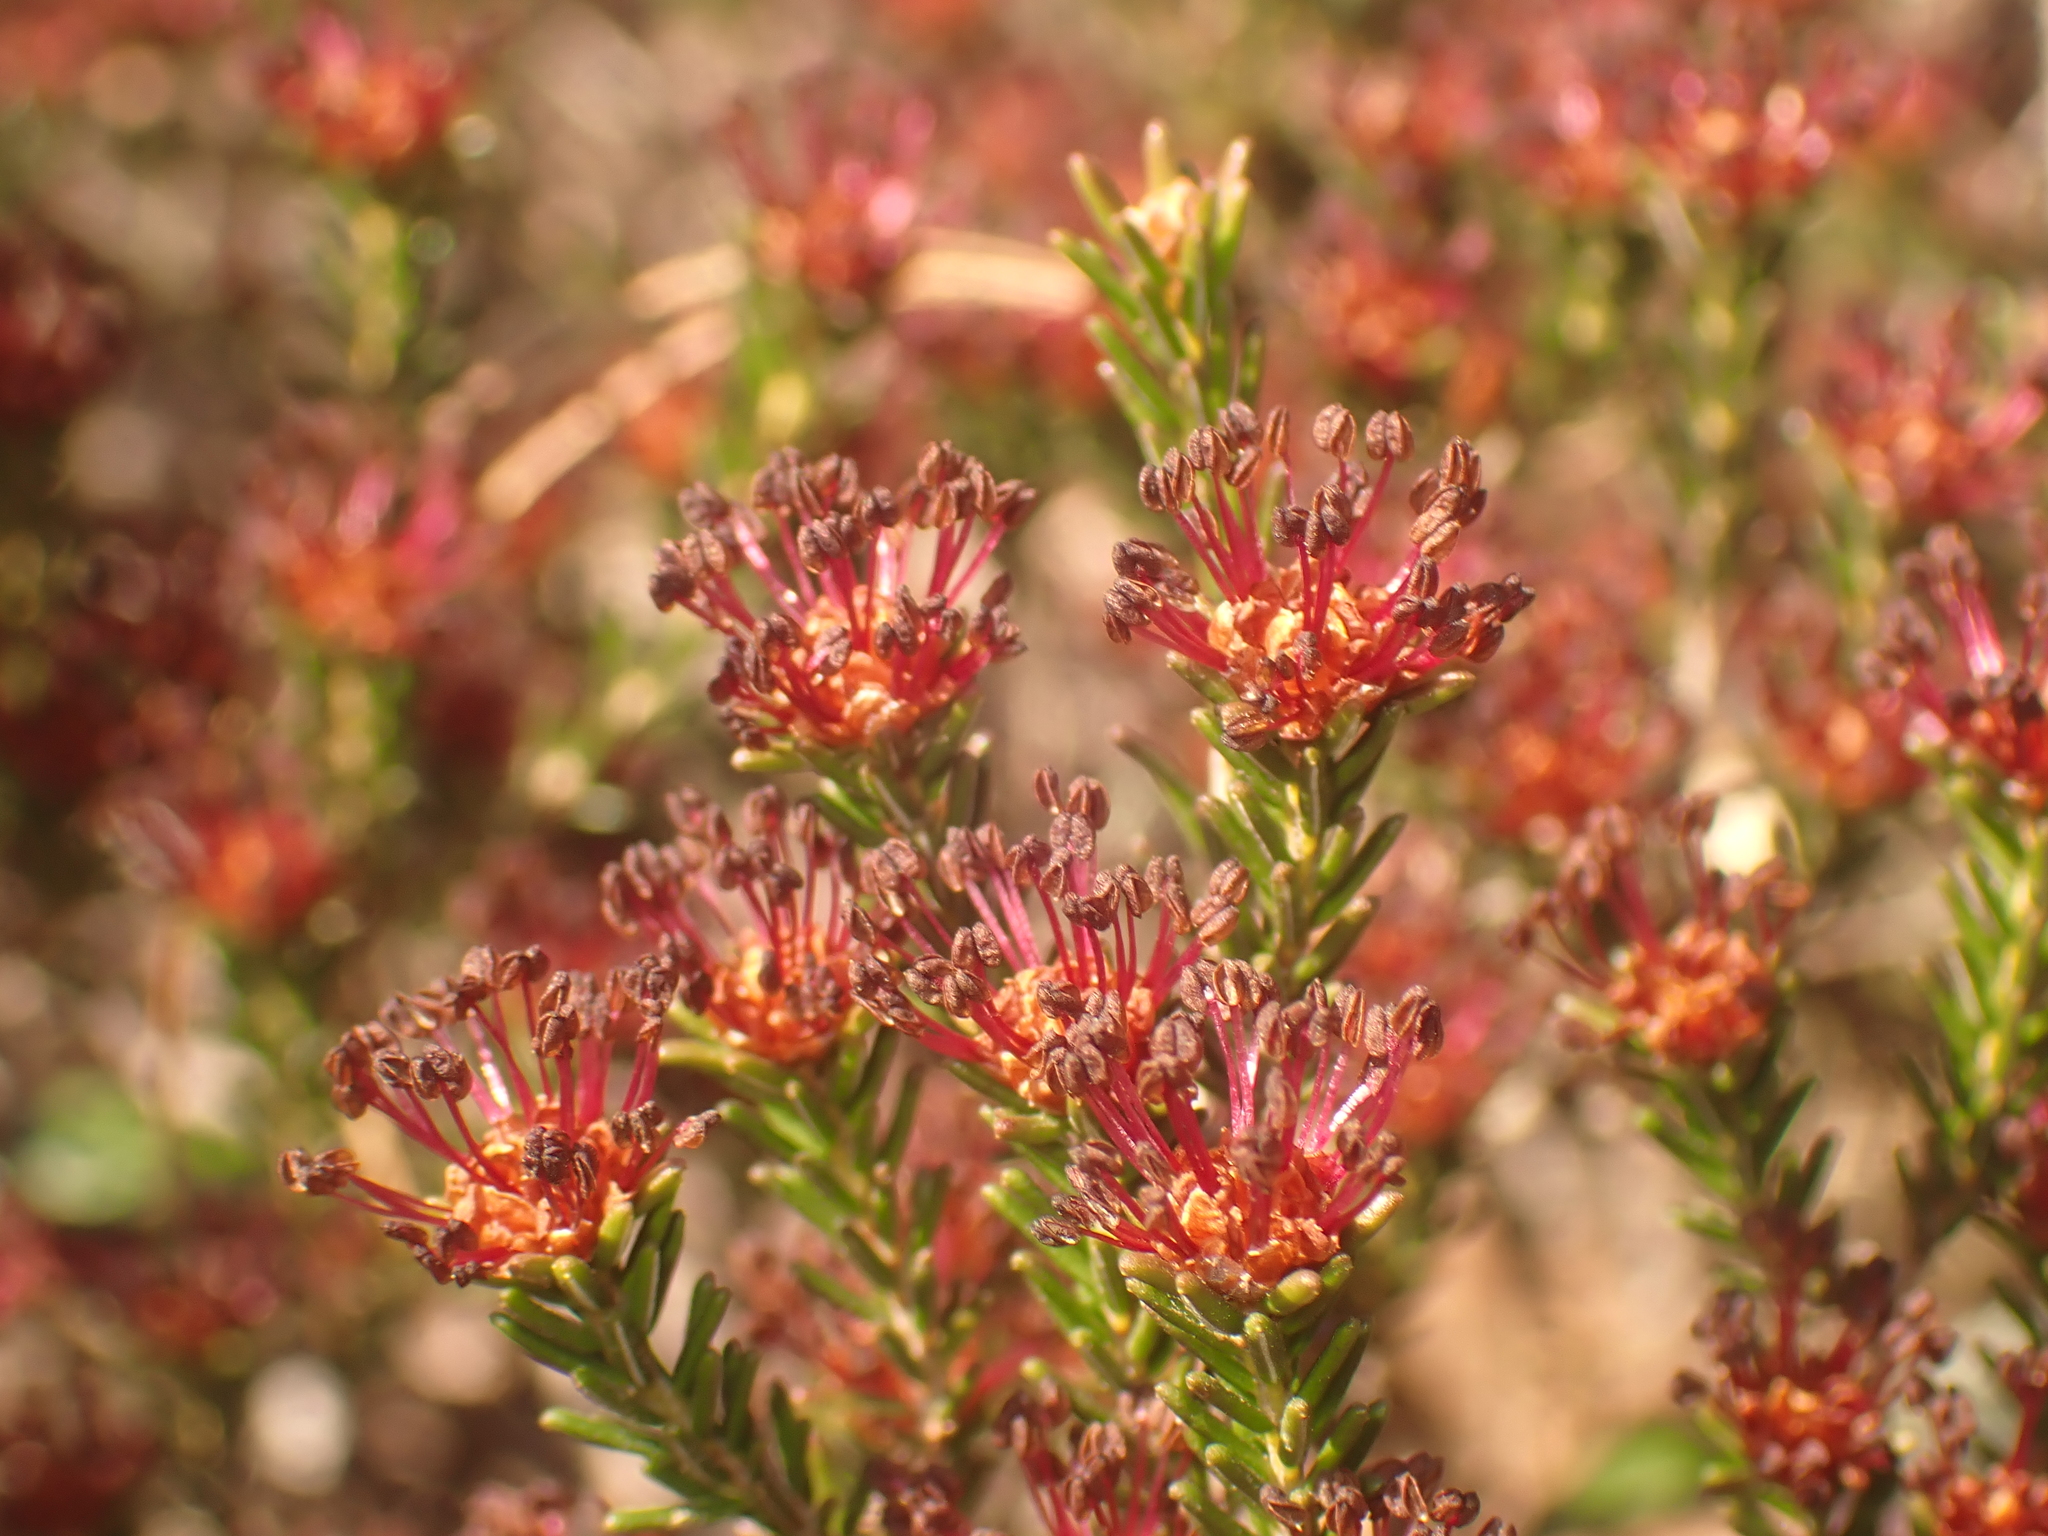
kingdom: Plantae
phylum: Tracheophyta
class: Magnoliopsida
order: Ericales
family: Ericaceae
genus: Corema
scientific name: Corema conradii
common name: Broom-crowberry
